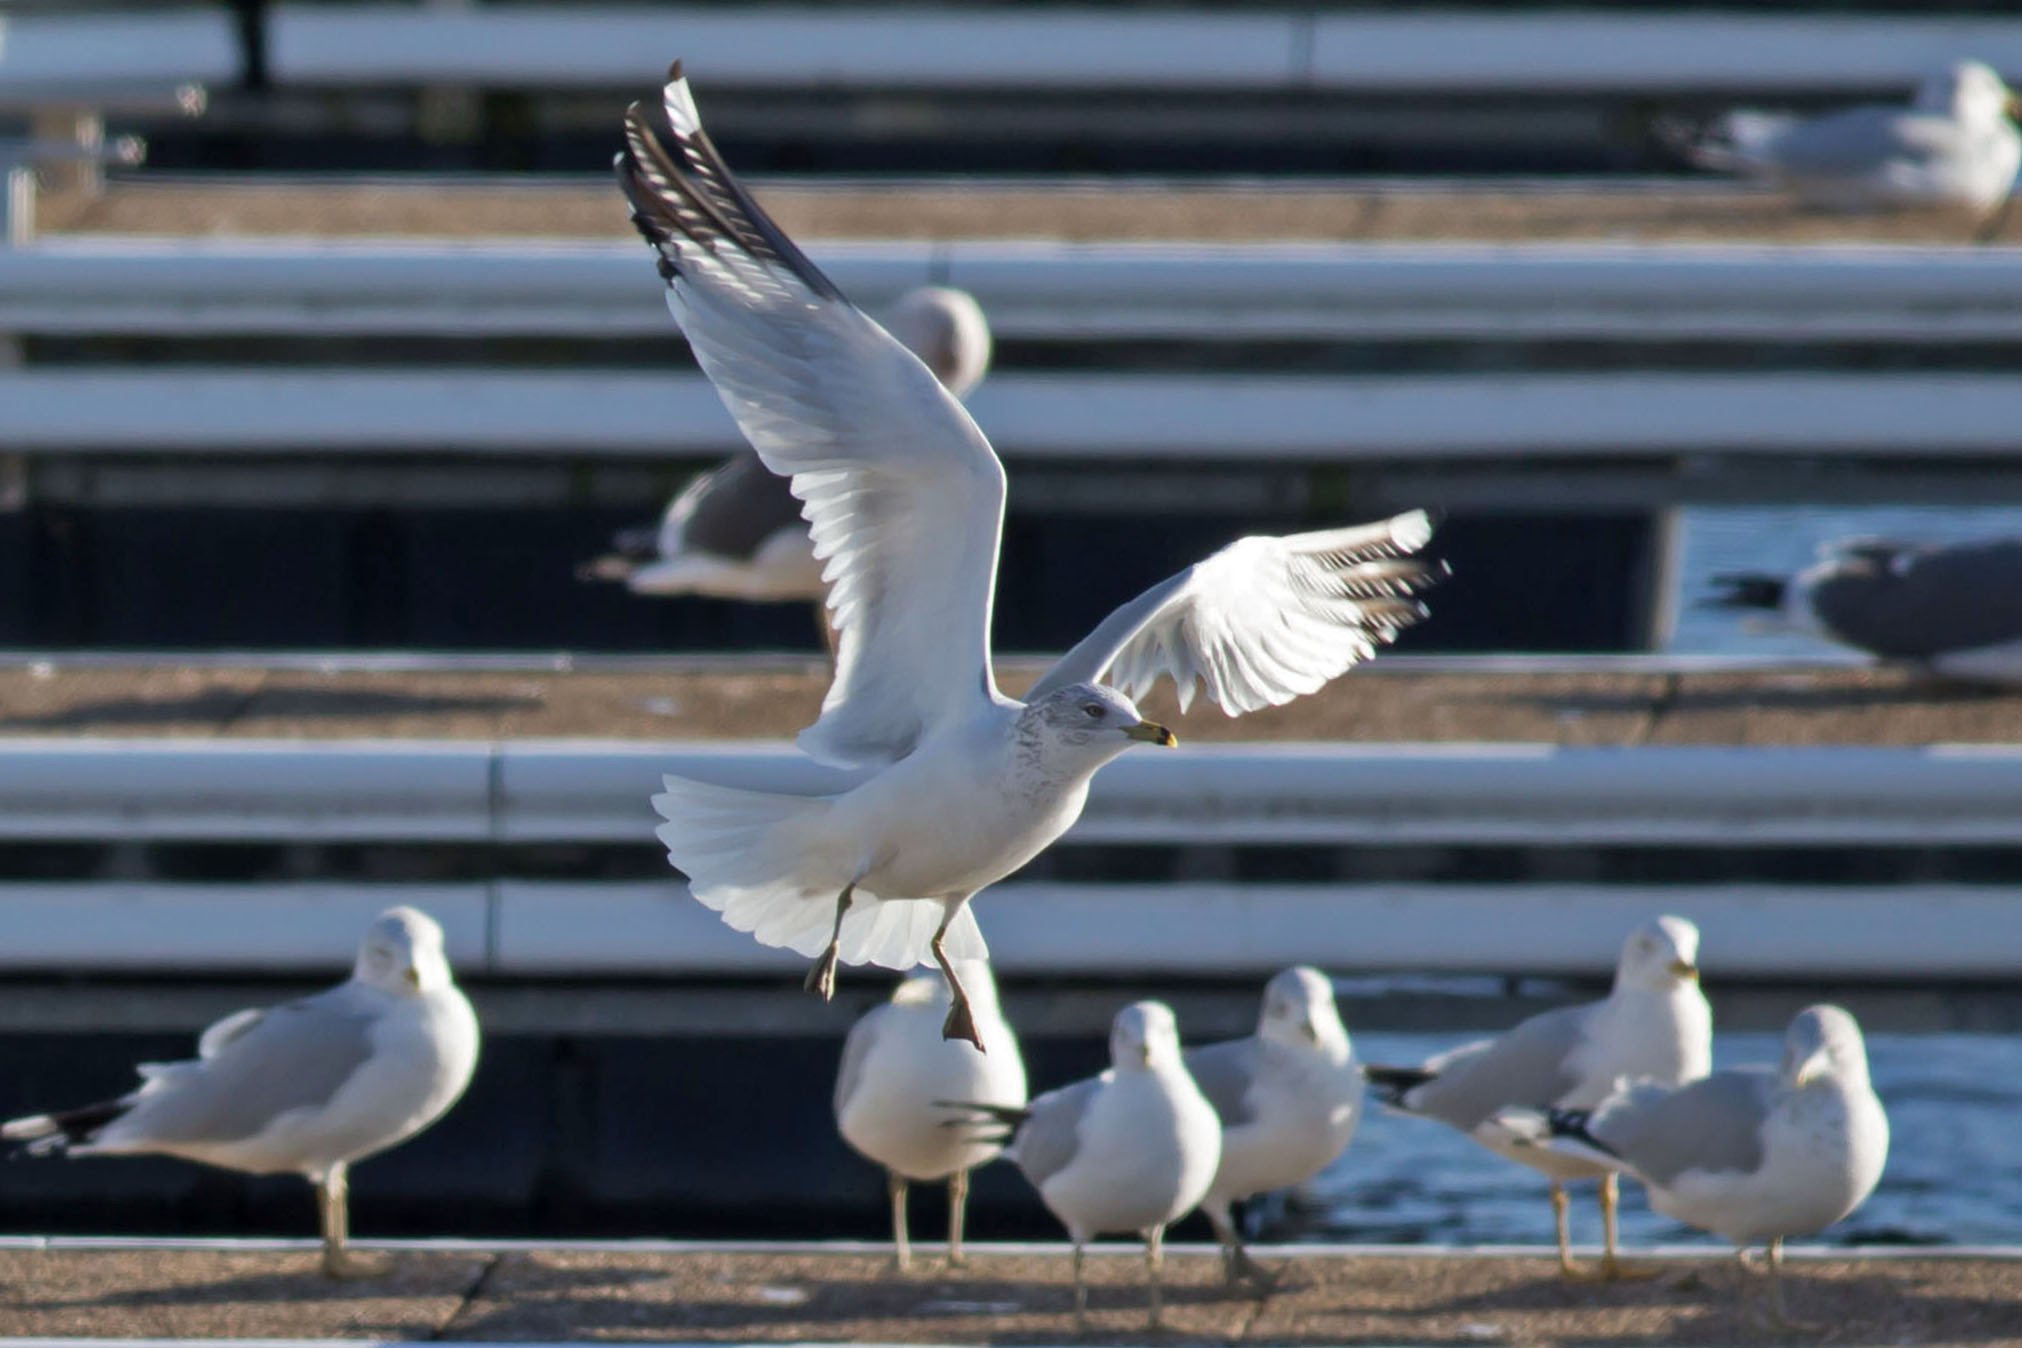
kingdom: Animalia
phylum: Chordata
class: Aves
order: Charadriiformes
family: Laridae
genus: Larus
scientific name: Larus delawarensis
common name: Ring-billed gull
